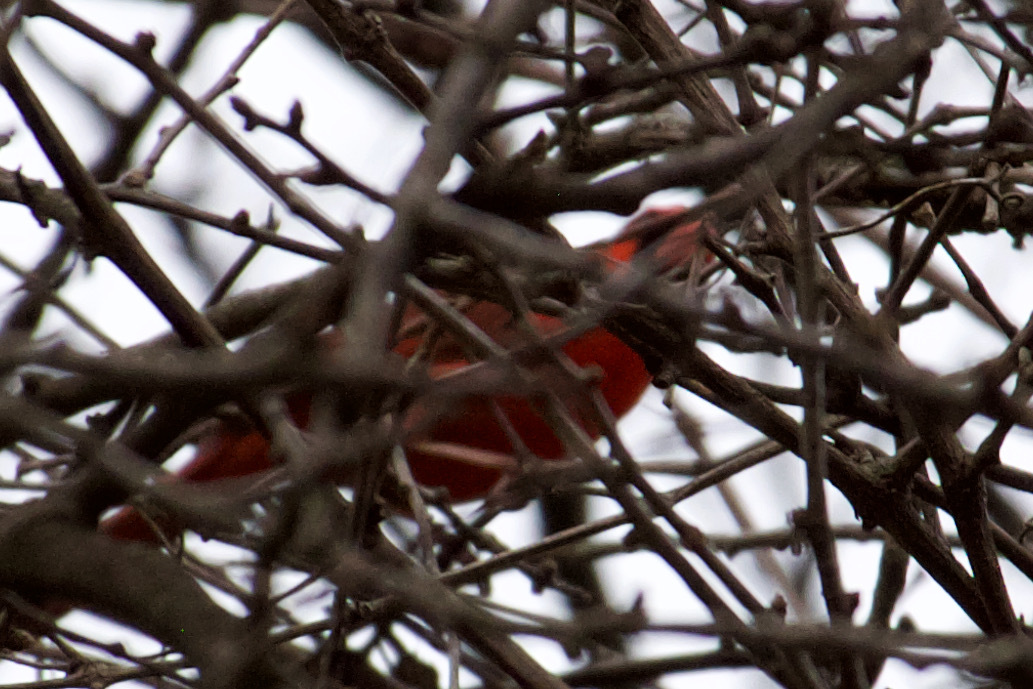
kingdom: Animalia
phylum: Chordata
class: Aves
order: Passeriformes
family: Cardinalidae
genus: Cardinalis
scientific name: Cardinalis cardinalis
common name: Northern cardinal
